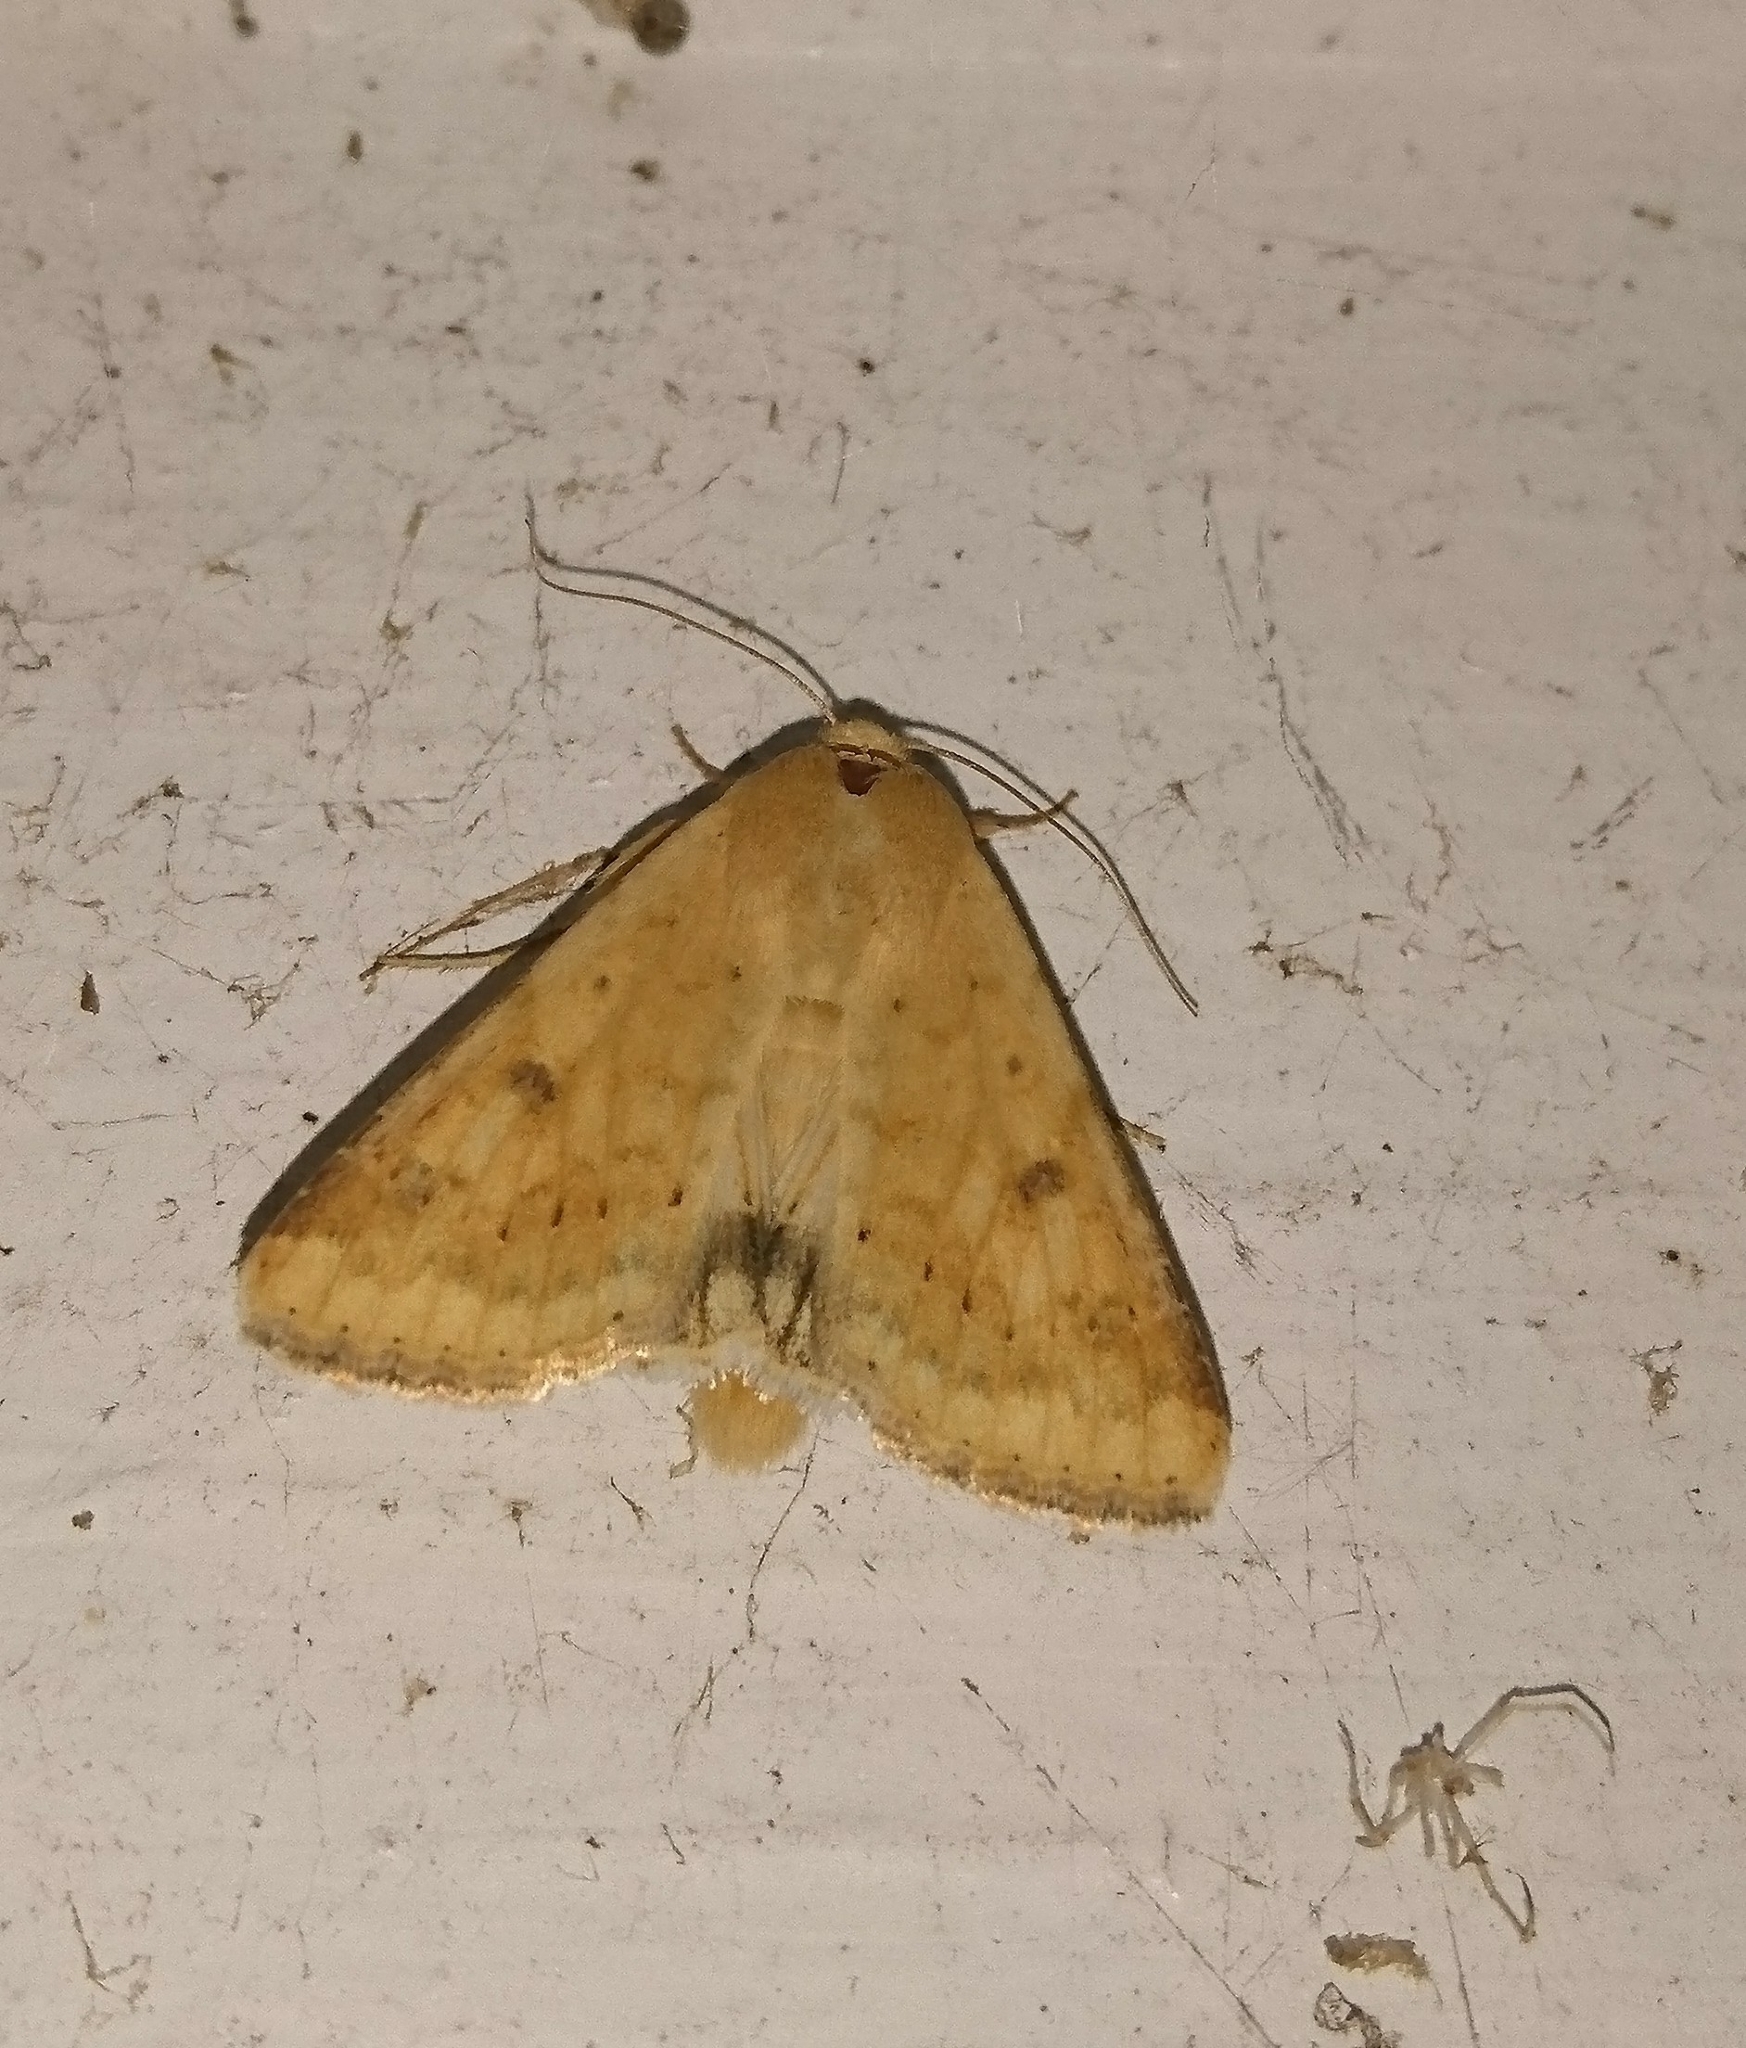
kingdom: Animalia
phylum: Arthropoda
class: Insecta
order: Lepidoptera
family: Noctuidae
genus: Helicoverpa
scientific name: Helicoverpa zea
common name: Bollworm
